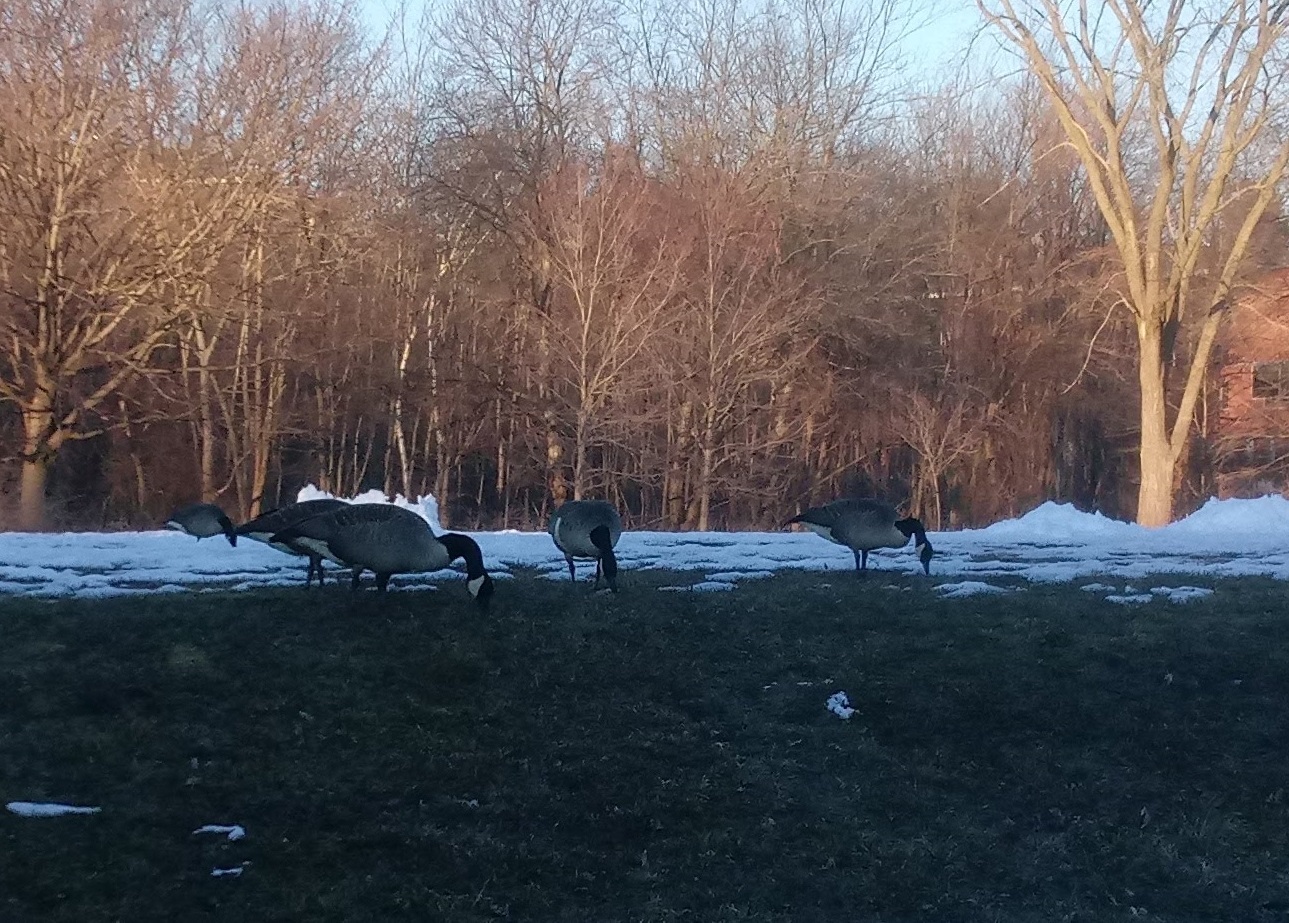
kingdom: Animalia
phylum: Chordata
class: Aves
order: Anseriformes
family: Anatidae
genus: Branta
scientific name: Branta canadensis
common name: Canada goose
